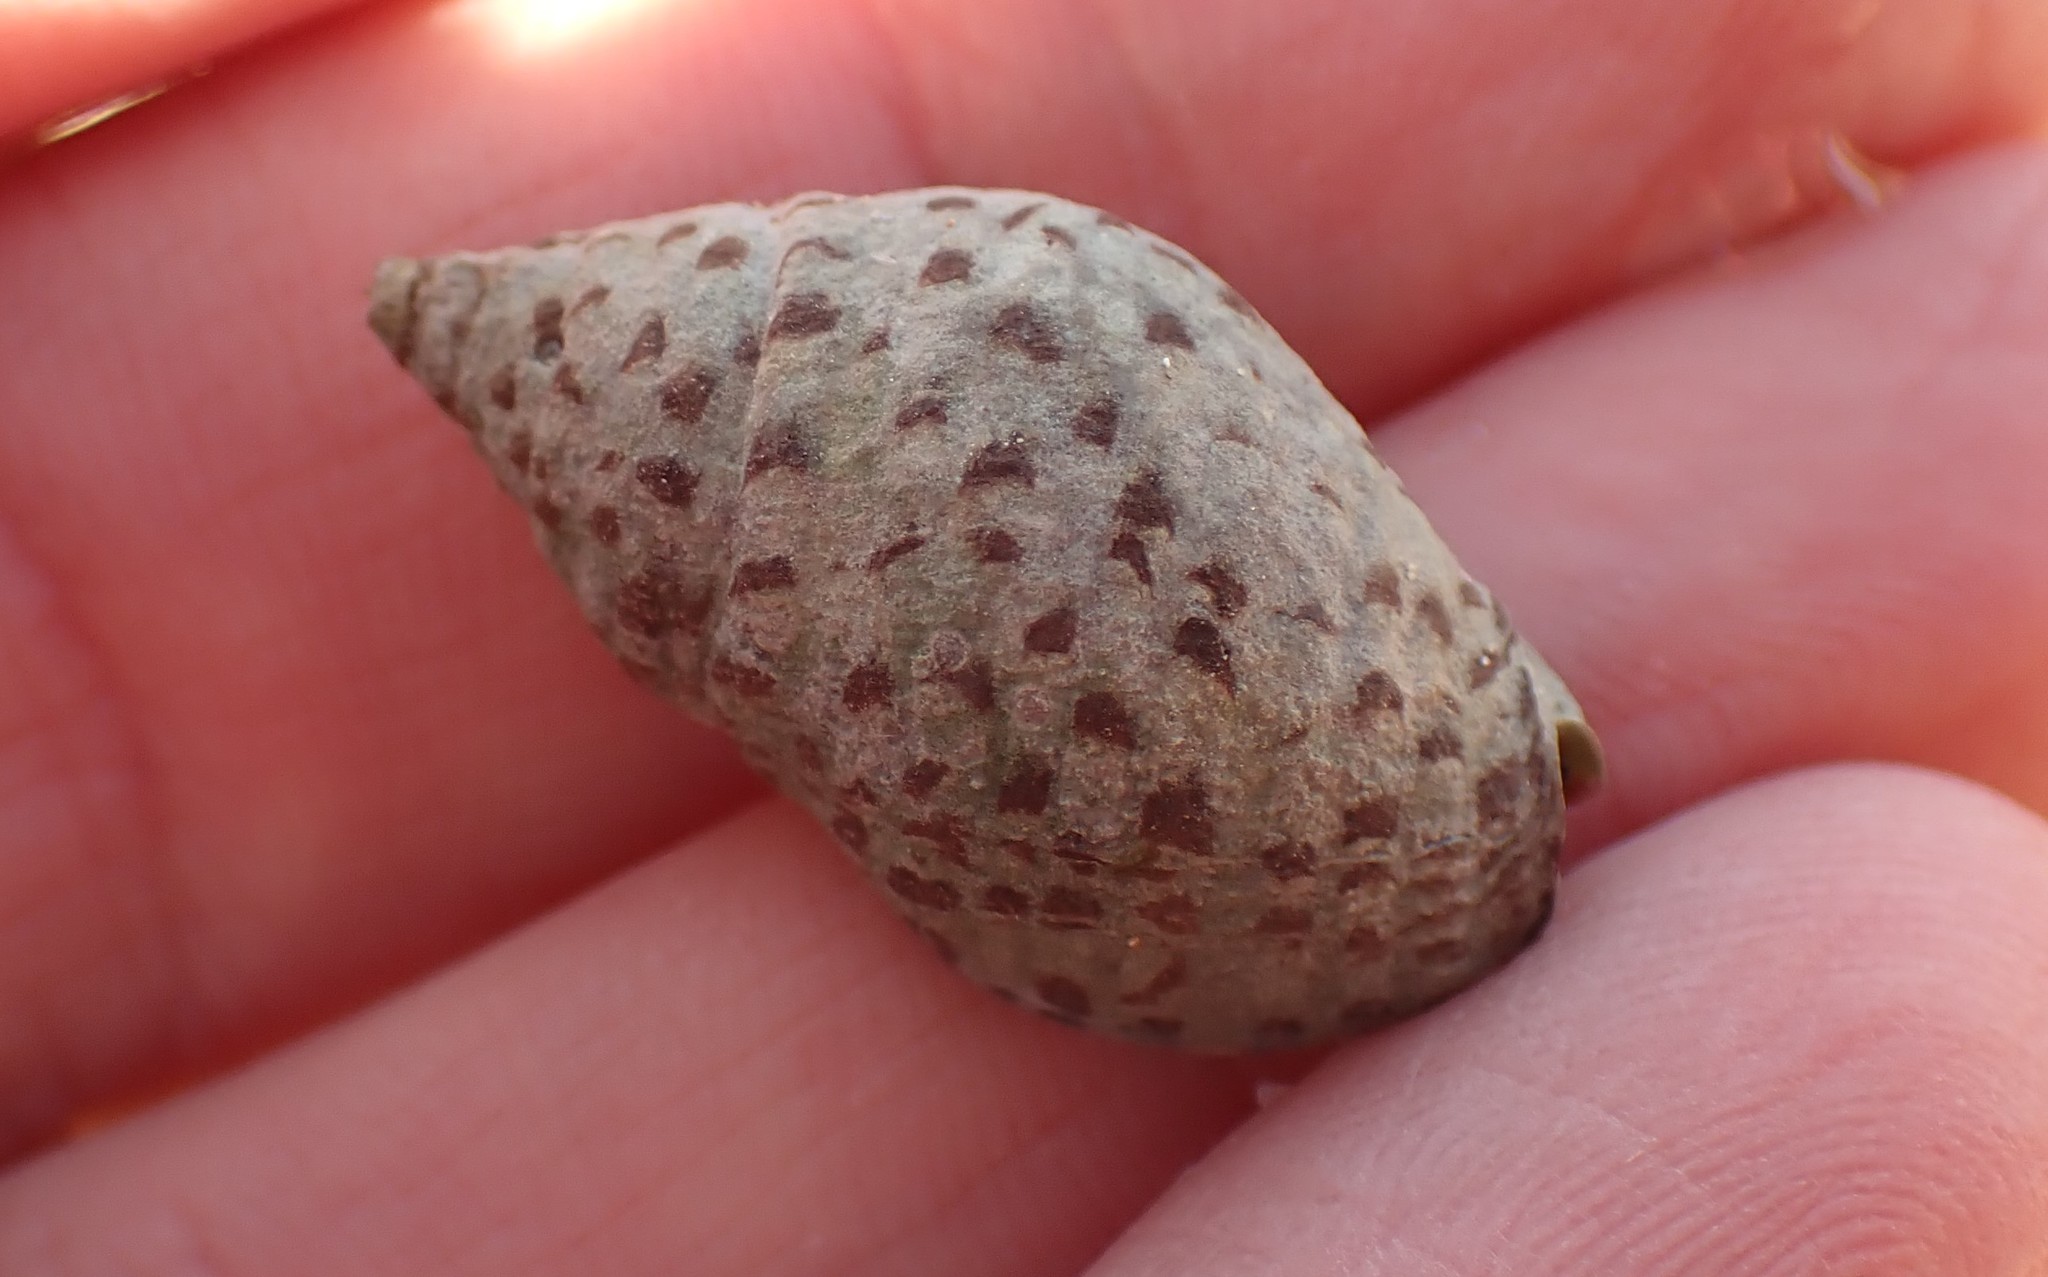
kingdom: Animalia
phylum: Mollusca
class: Gastropoda
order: Neogastropoda
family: Cominellidae
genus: Cominella
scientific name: Cominella lineolata
